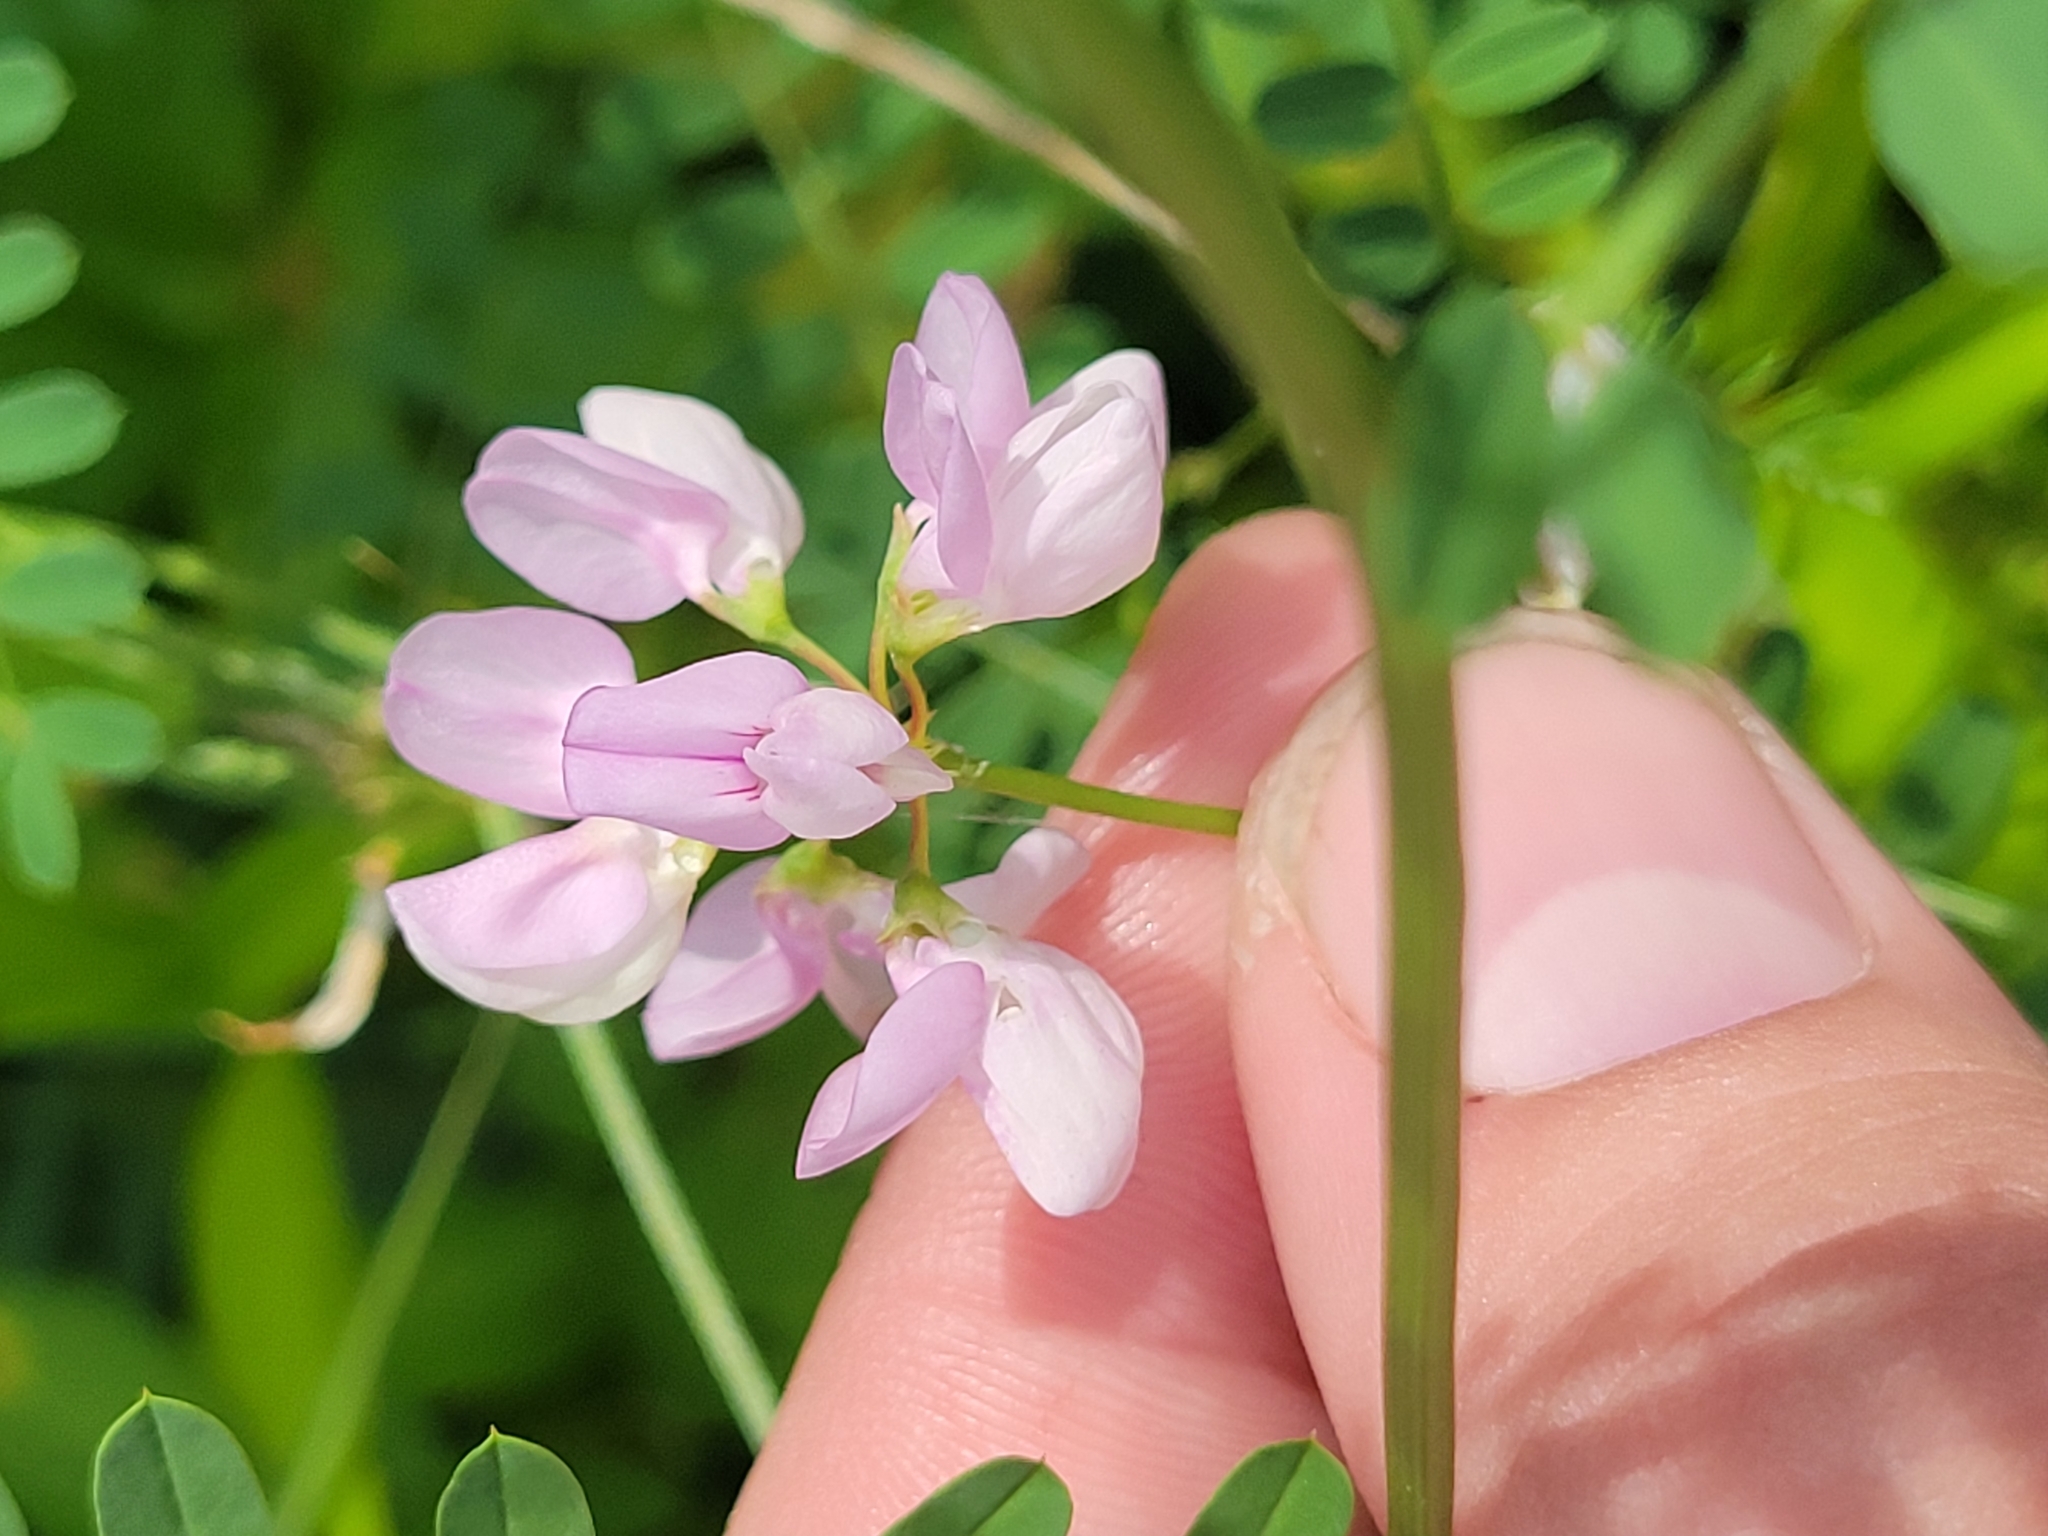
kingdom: Plantae
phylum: Tracheophyta
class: Magnoliopsida
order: Fabales
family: Fabaceae
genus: Coronilla
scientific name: Coronilla varia
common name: Crownvetch
